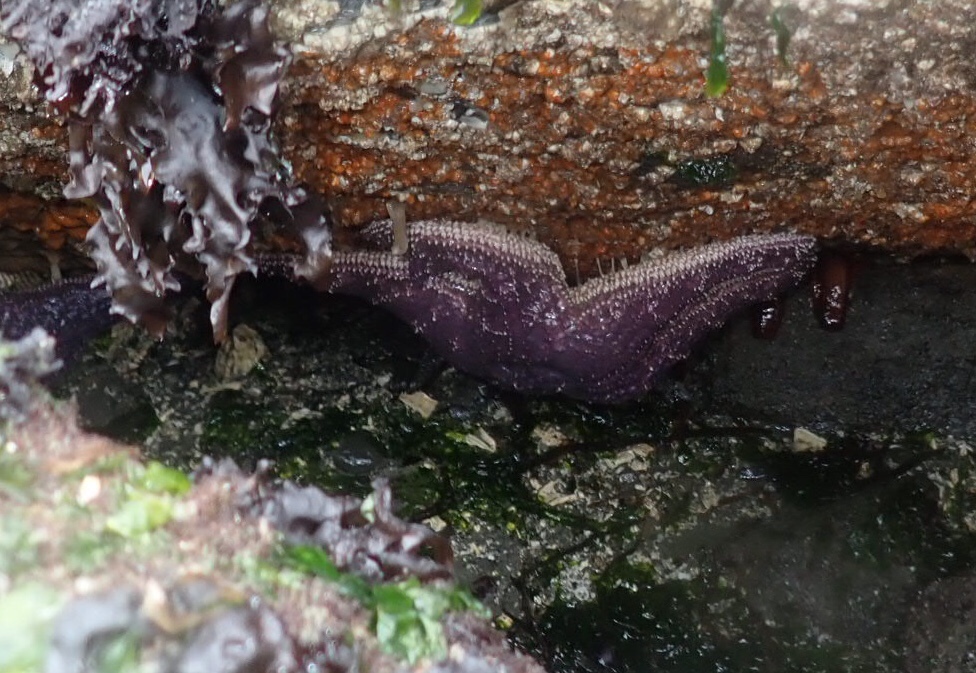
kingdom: Animalia
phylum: Echinodermata
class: Asteroidea
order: Forcipulatida
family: Asteriidae
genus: Pisaster
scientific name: Pisaster ochraceus
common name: Ochre stars
